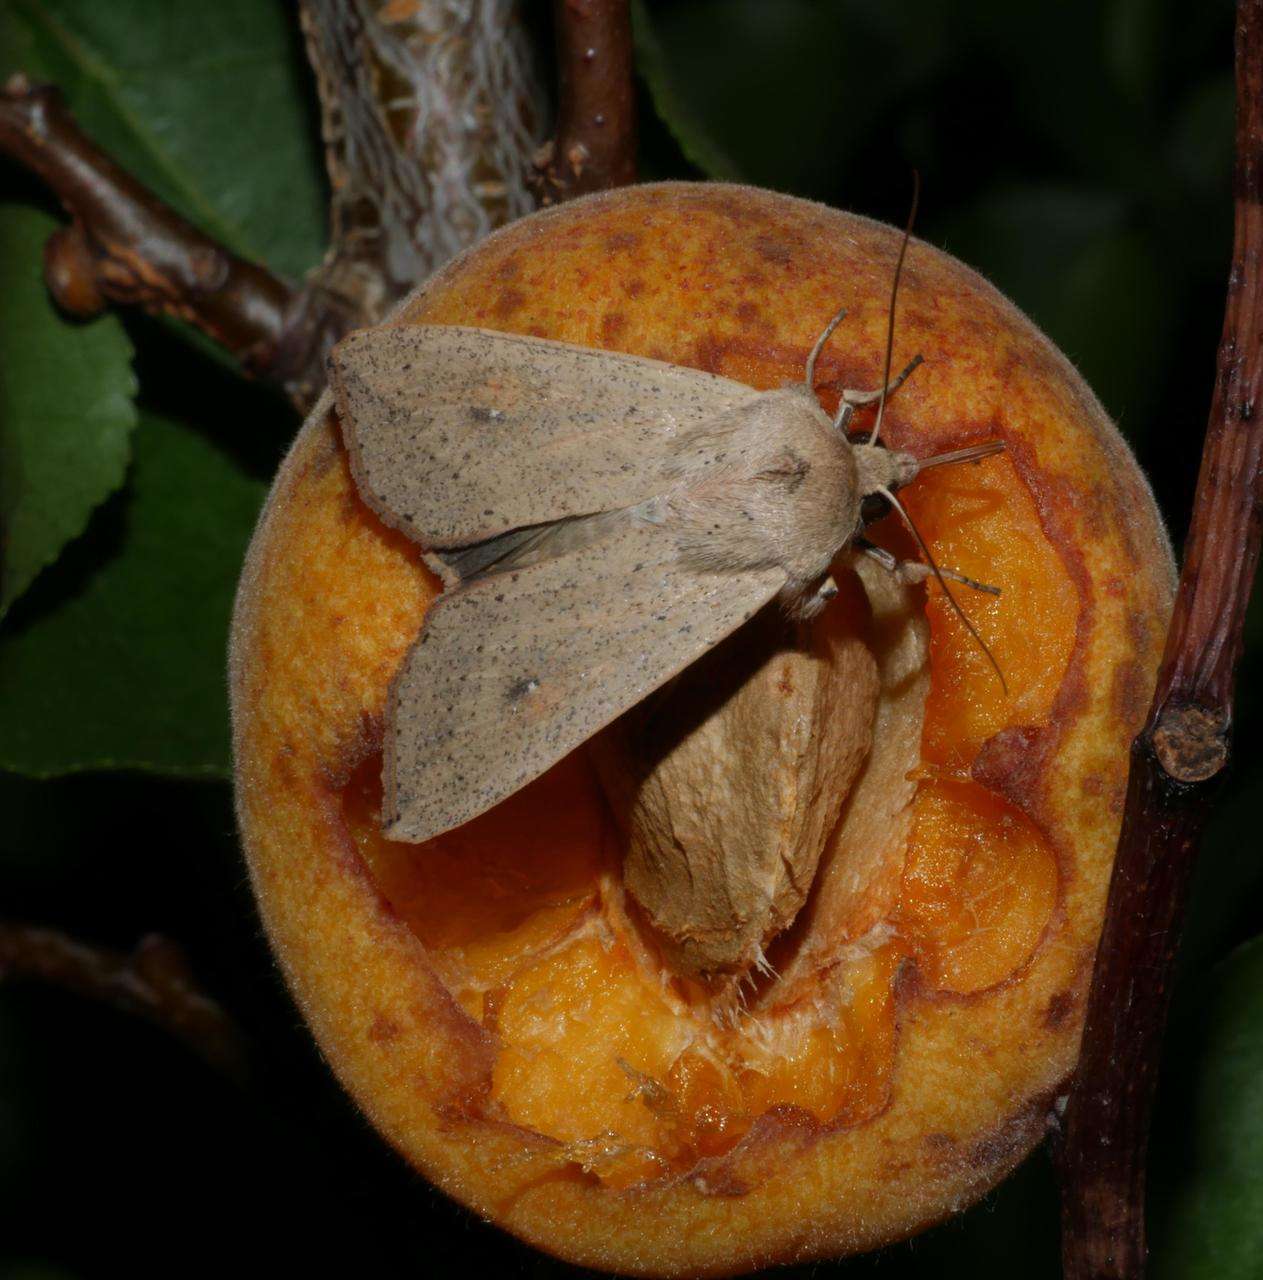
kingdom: Animalia
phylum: Arthropoda
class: Insecta
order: Lepidoptera
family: Noctuidae
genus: Mythimna
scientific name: Mythimna convecta
